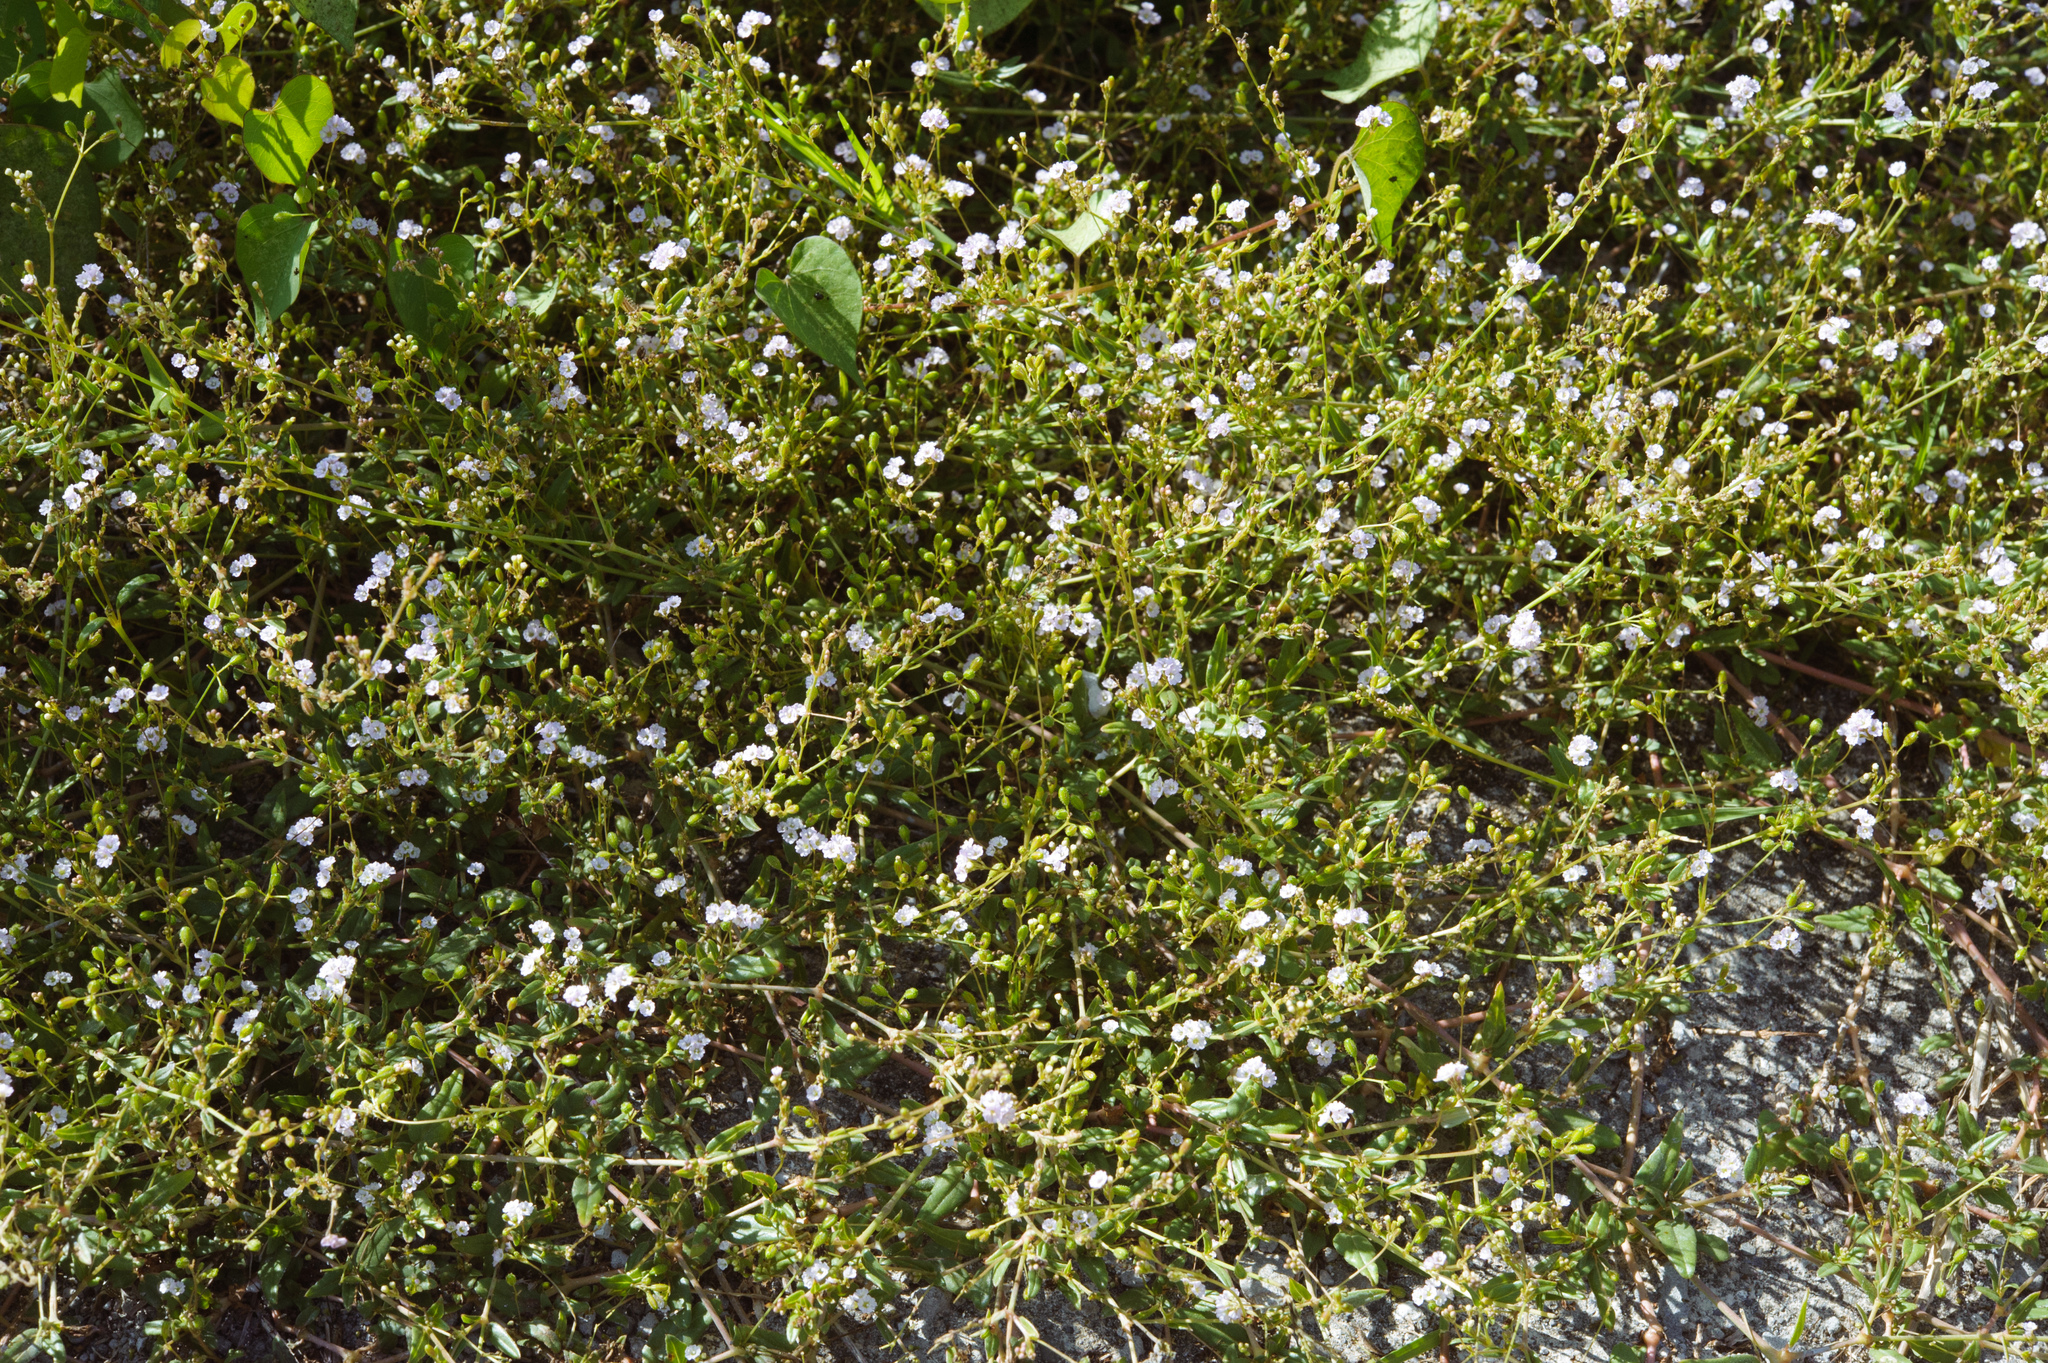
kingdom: Plantae
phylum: Tracheophyta
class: Magnoliopsida
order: Caryophyllales
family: Nyctaginaceae
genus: Boerhavia
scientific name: Boerhavia glabrata
